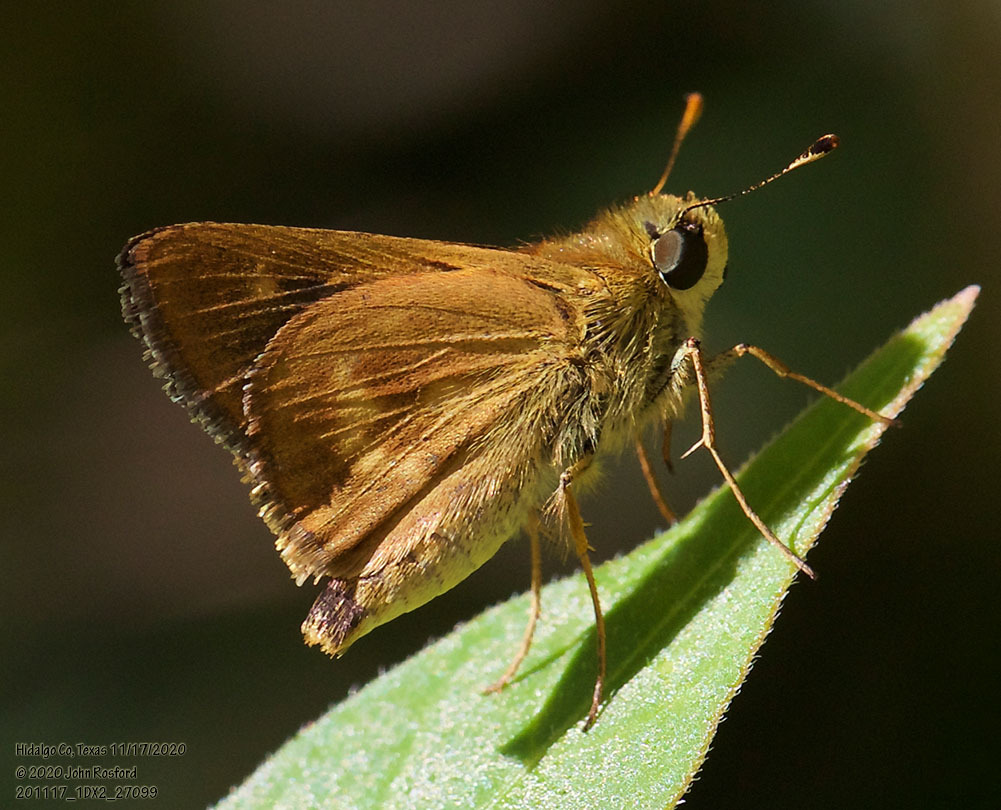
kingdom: Animalia
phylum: Arthropoda
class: Insecta
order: Lepidoptera
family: Hesperiidae
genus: Polites
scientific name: Polites otho
